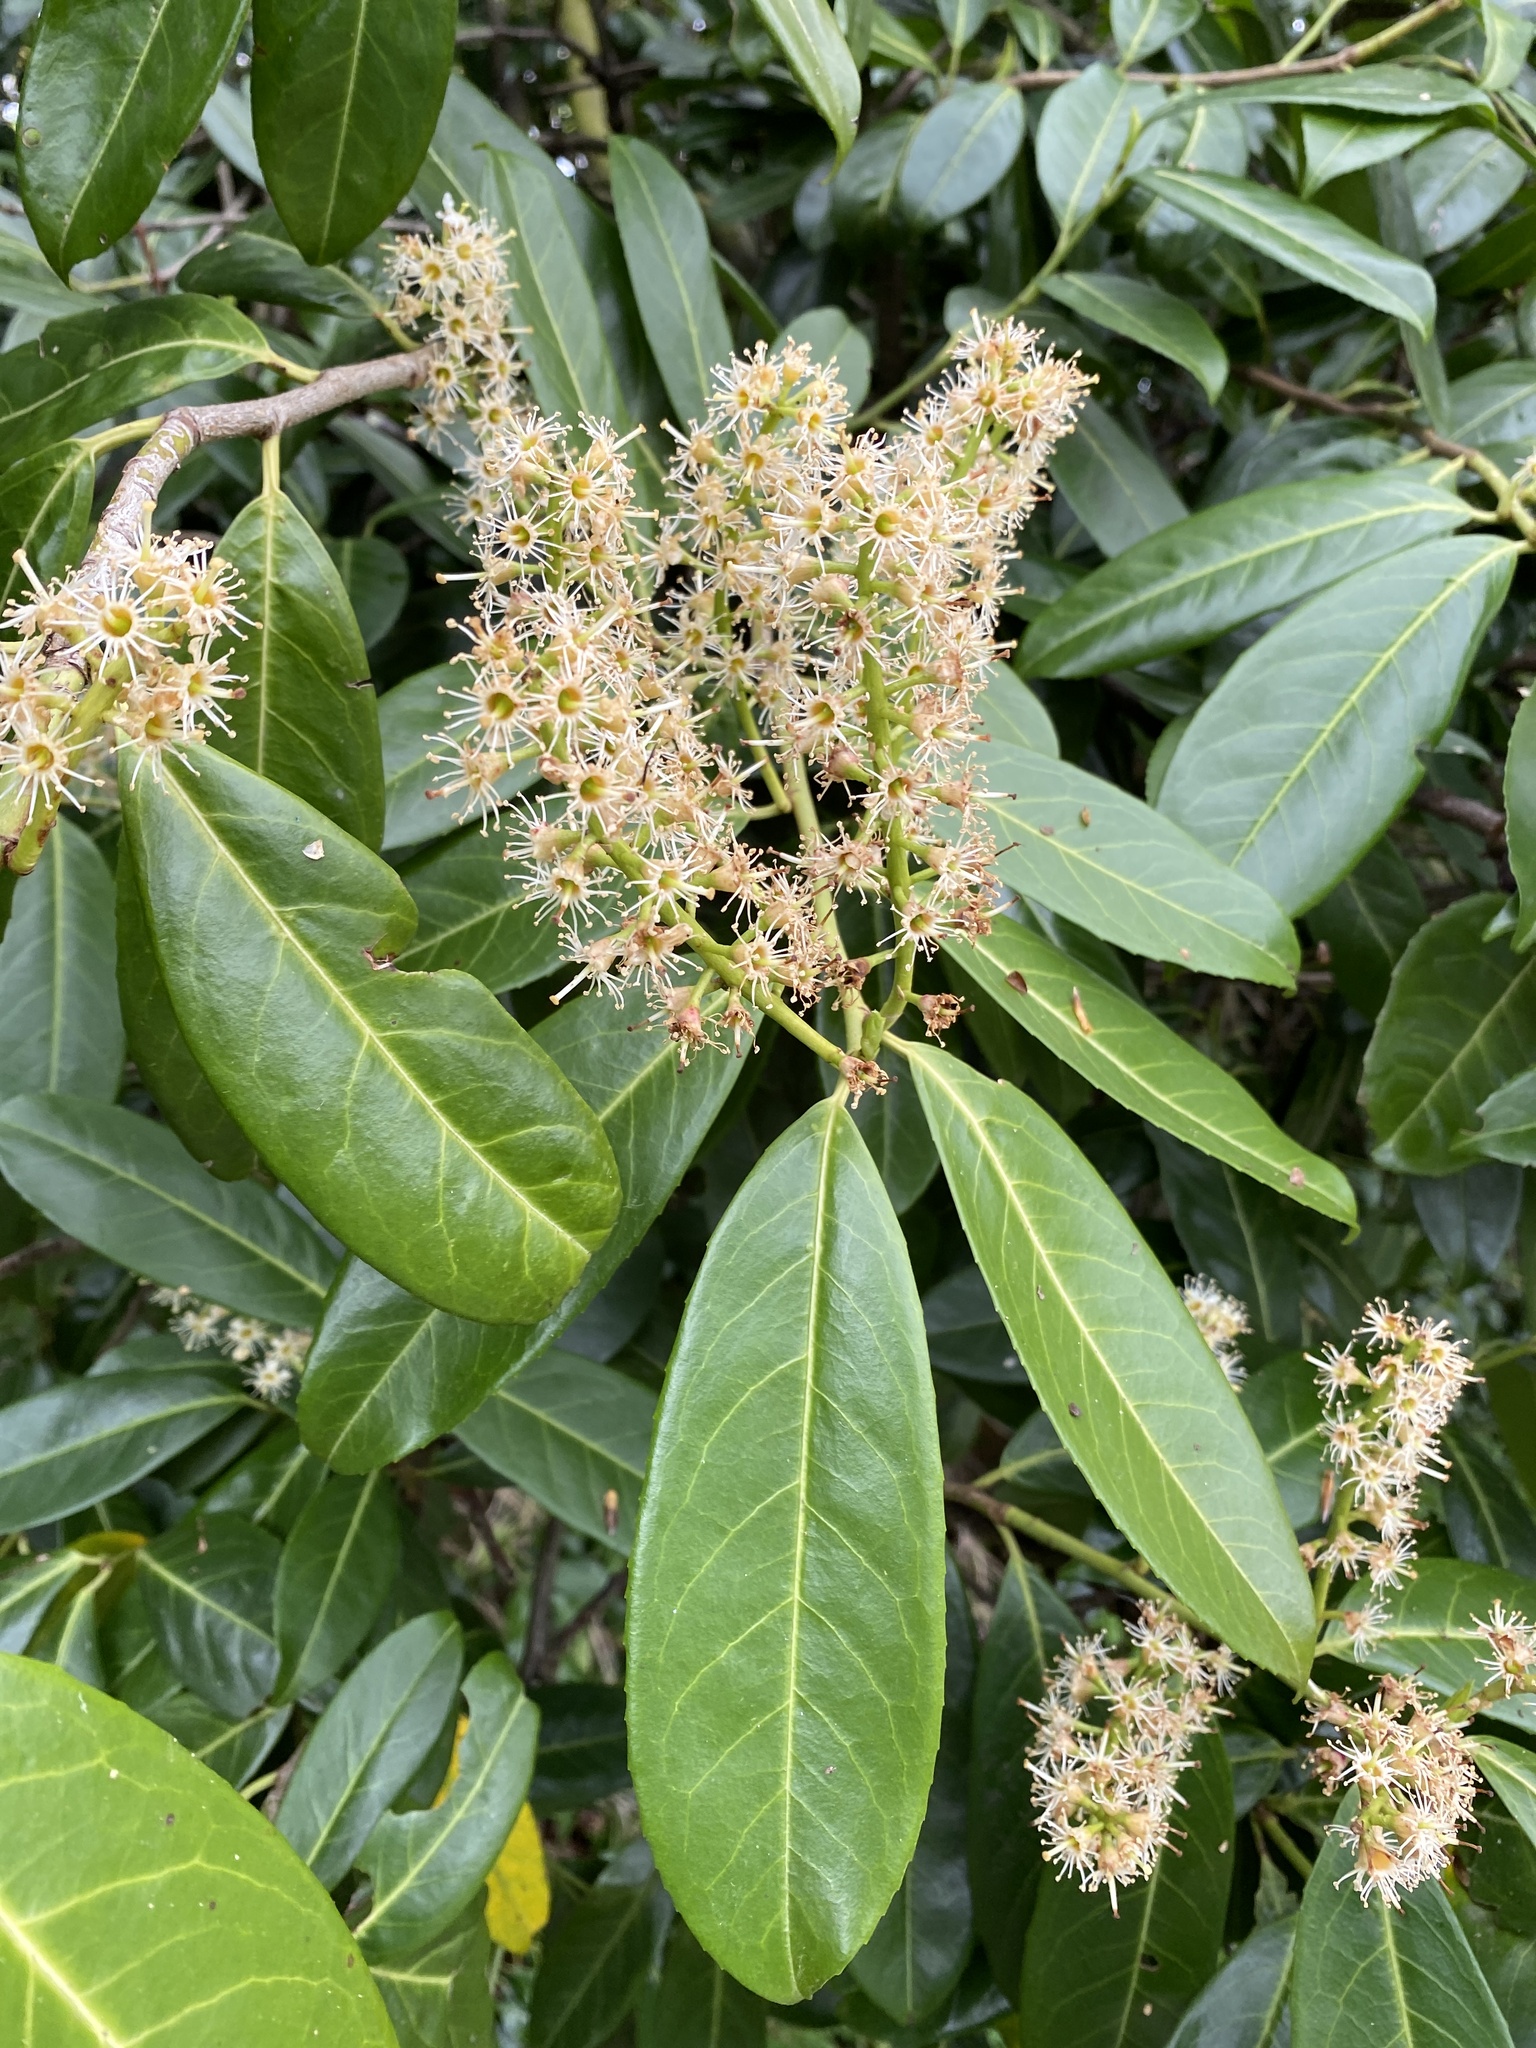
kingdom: Plantae
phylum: Tracheophyta
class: Magnoliopsida
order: Rosales
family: Rosaceae
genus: Prunus
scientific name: Prunus laurocerasus
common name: Cherry laurel
